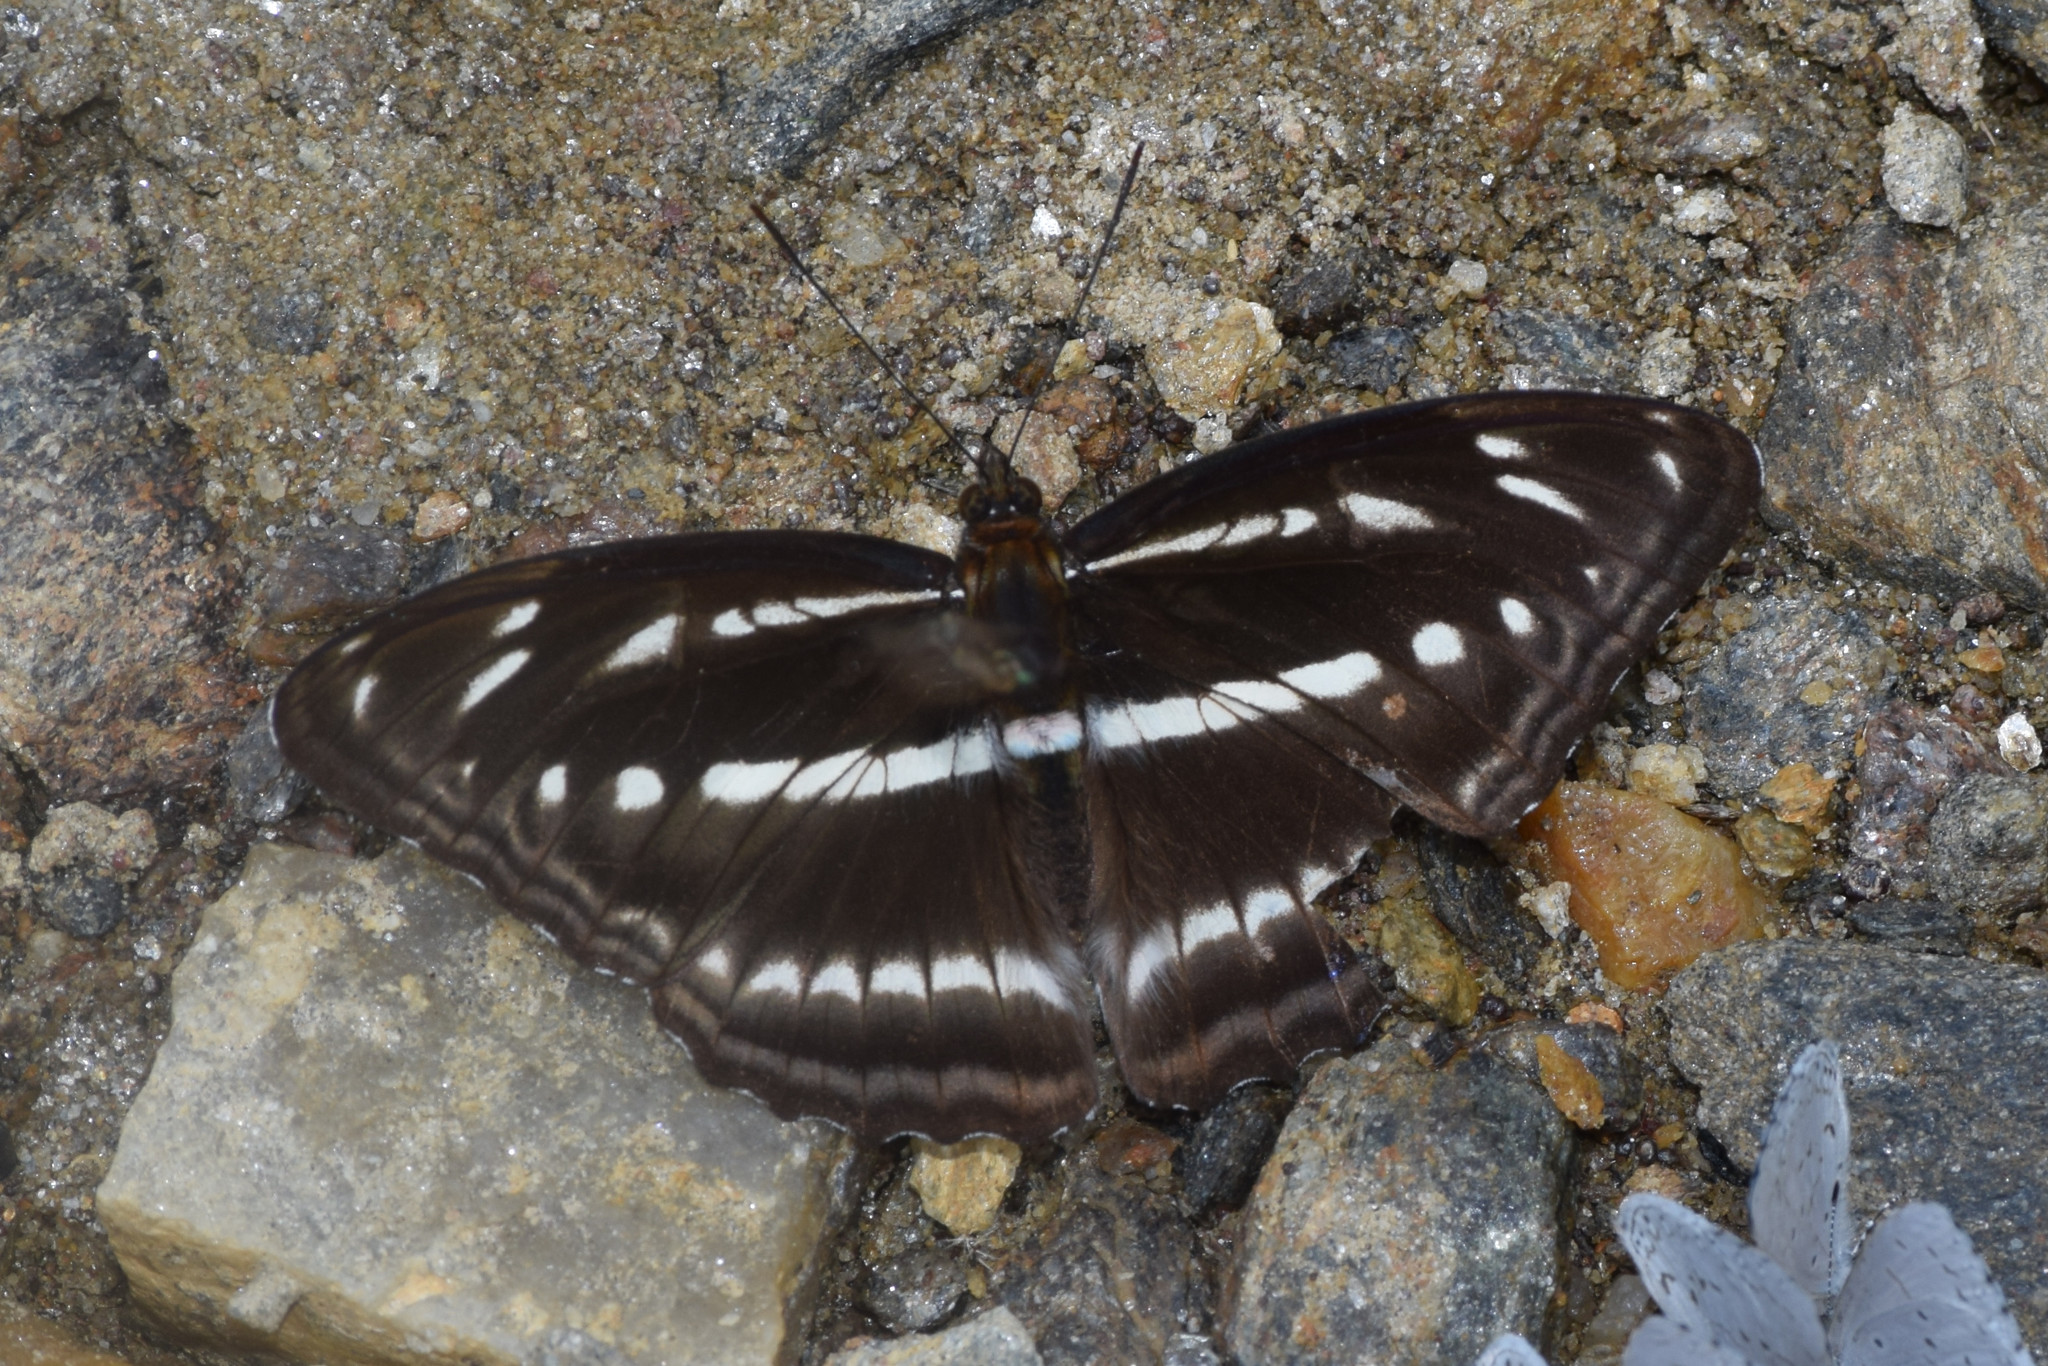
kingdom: Animalia
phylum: Arthropoda
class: Insecta
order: Lepidoptera
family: Nymphalidae
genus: Parathyma
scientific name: Parathyma opalina
